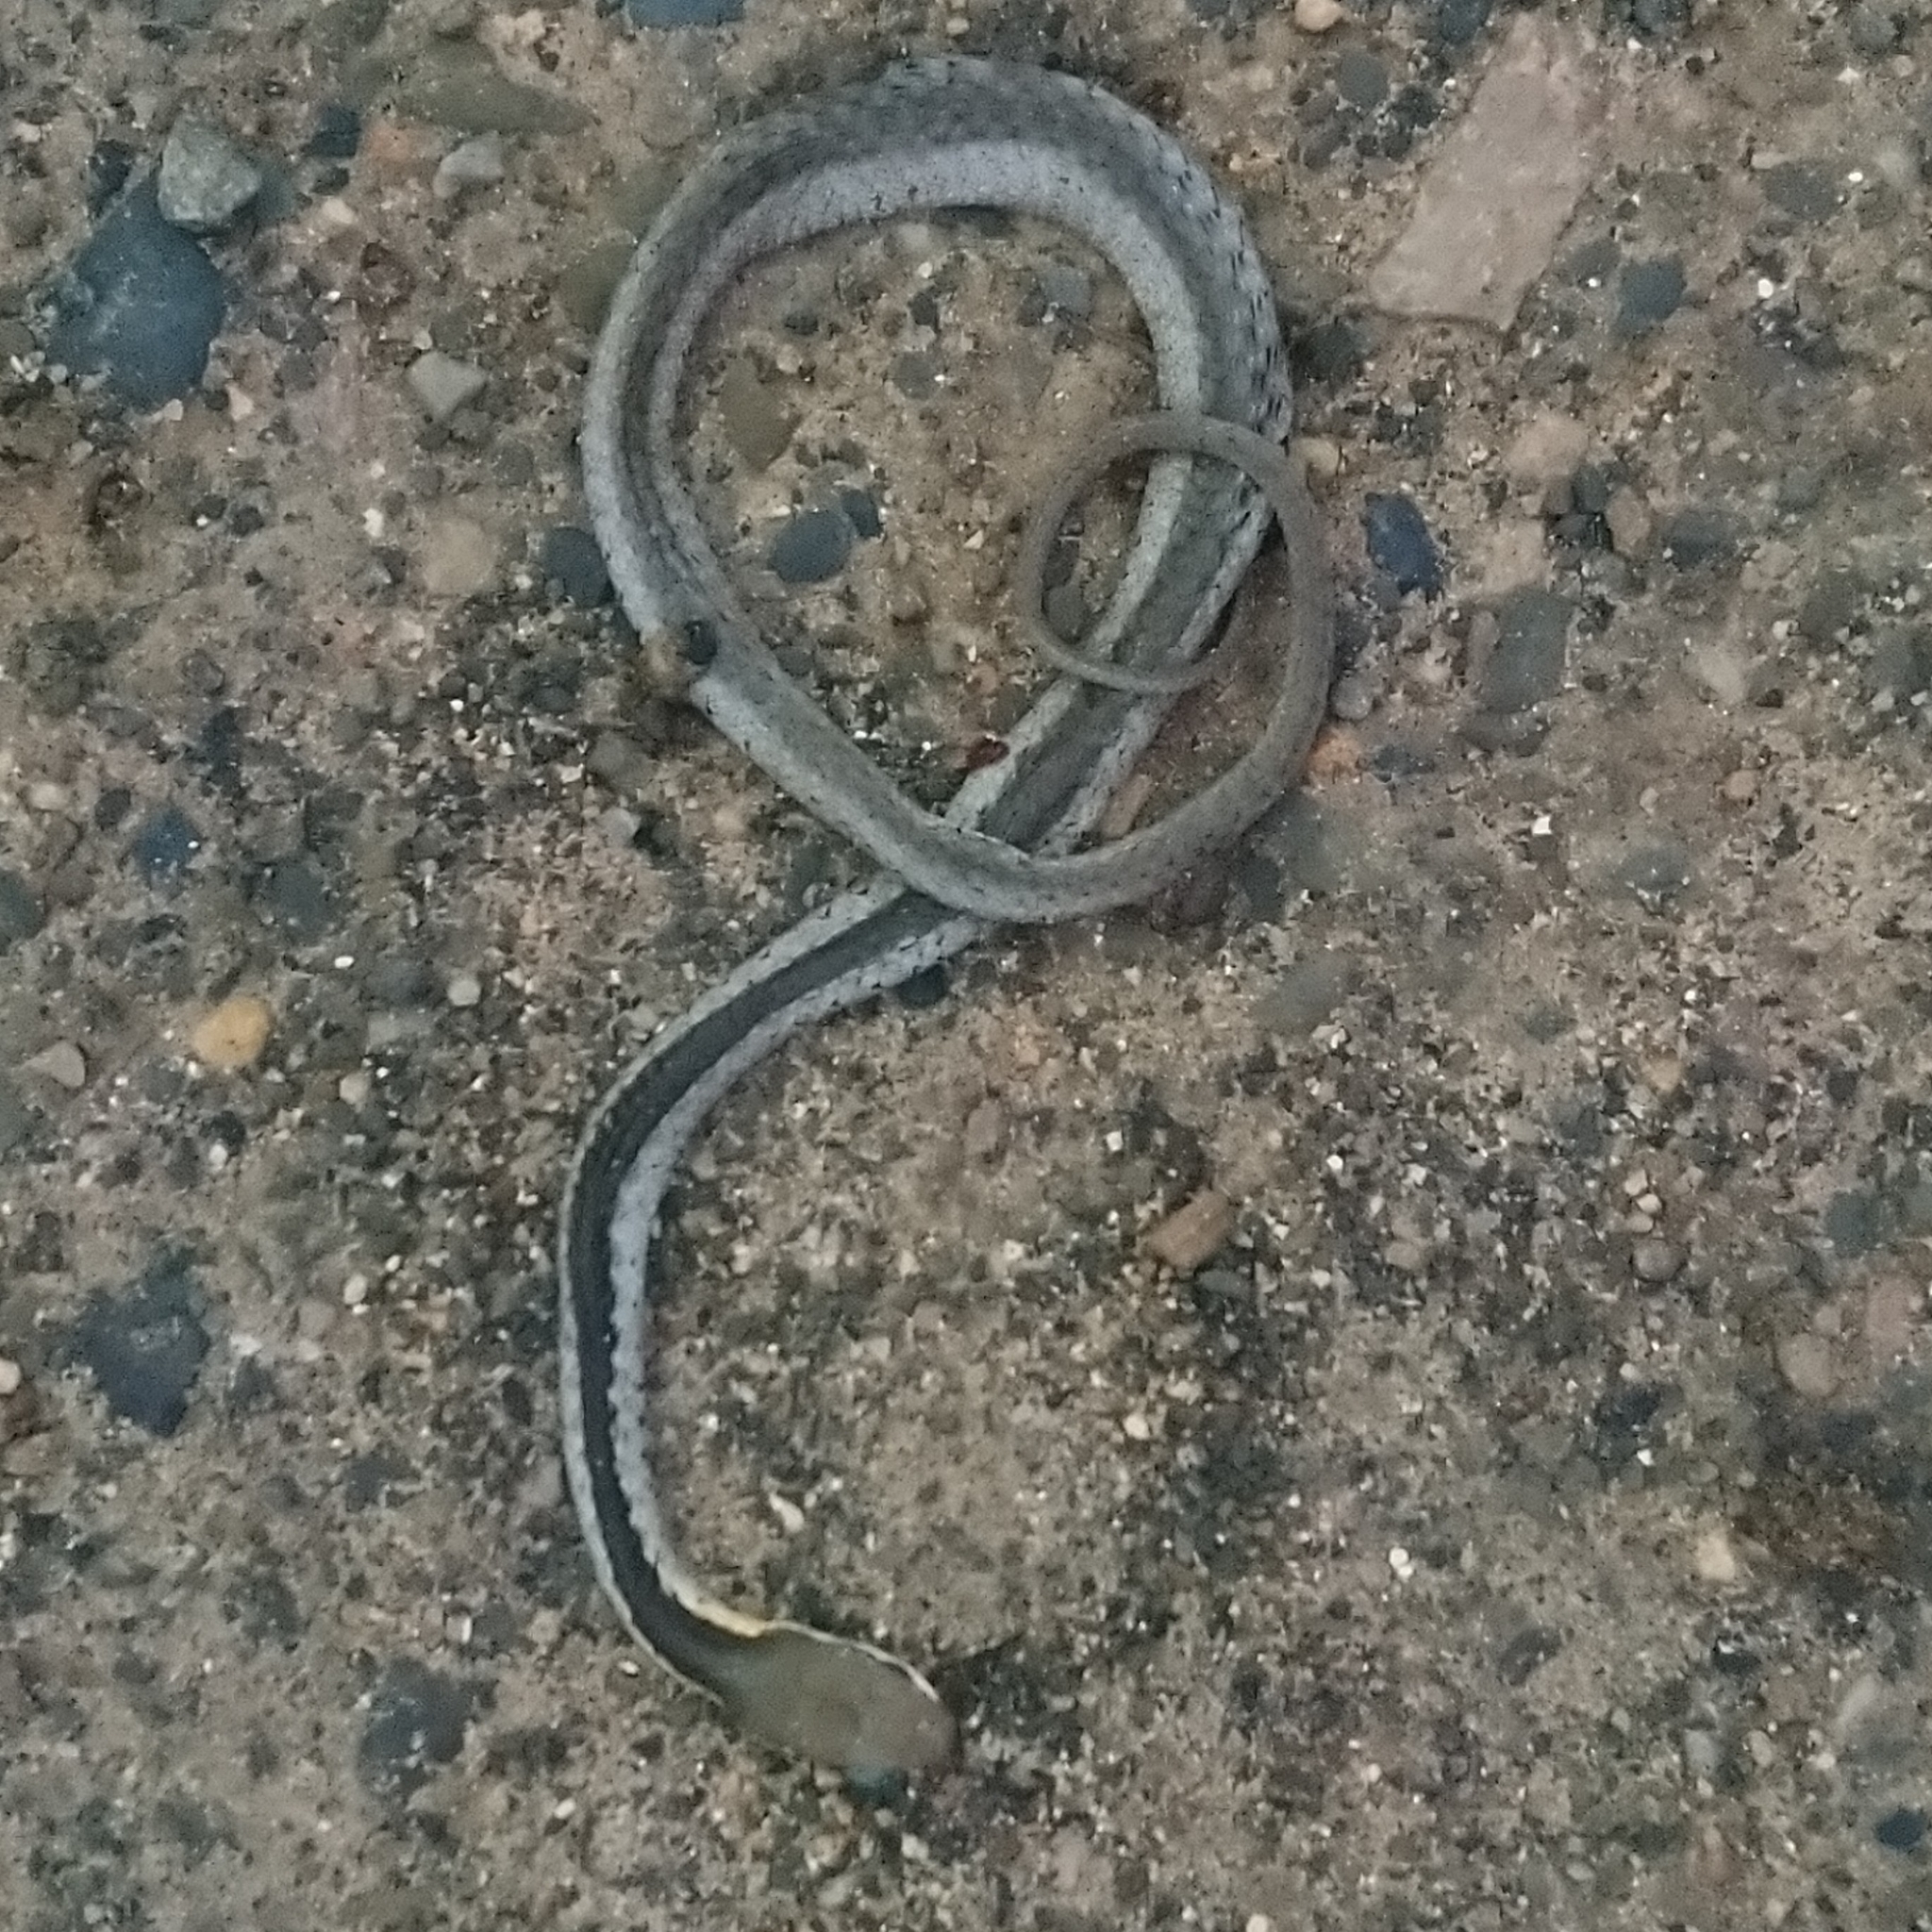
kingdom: Animalia
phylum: Chordata
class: Squamata
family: Colubridae
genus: Dispholidus
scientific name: Dispholidus typus
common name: Boomslang
